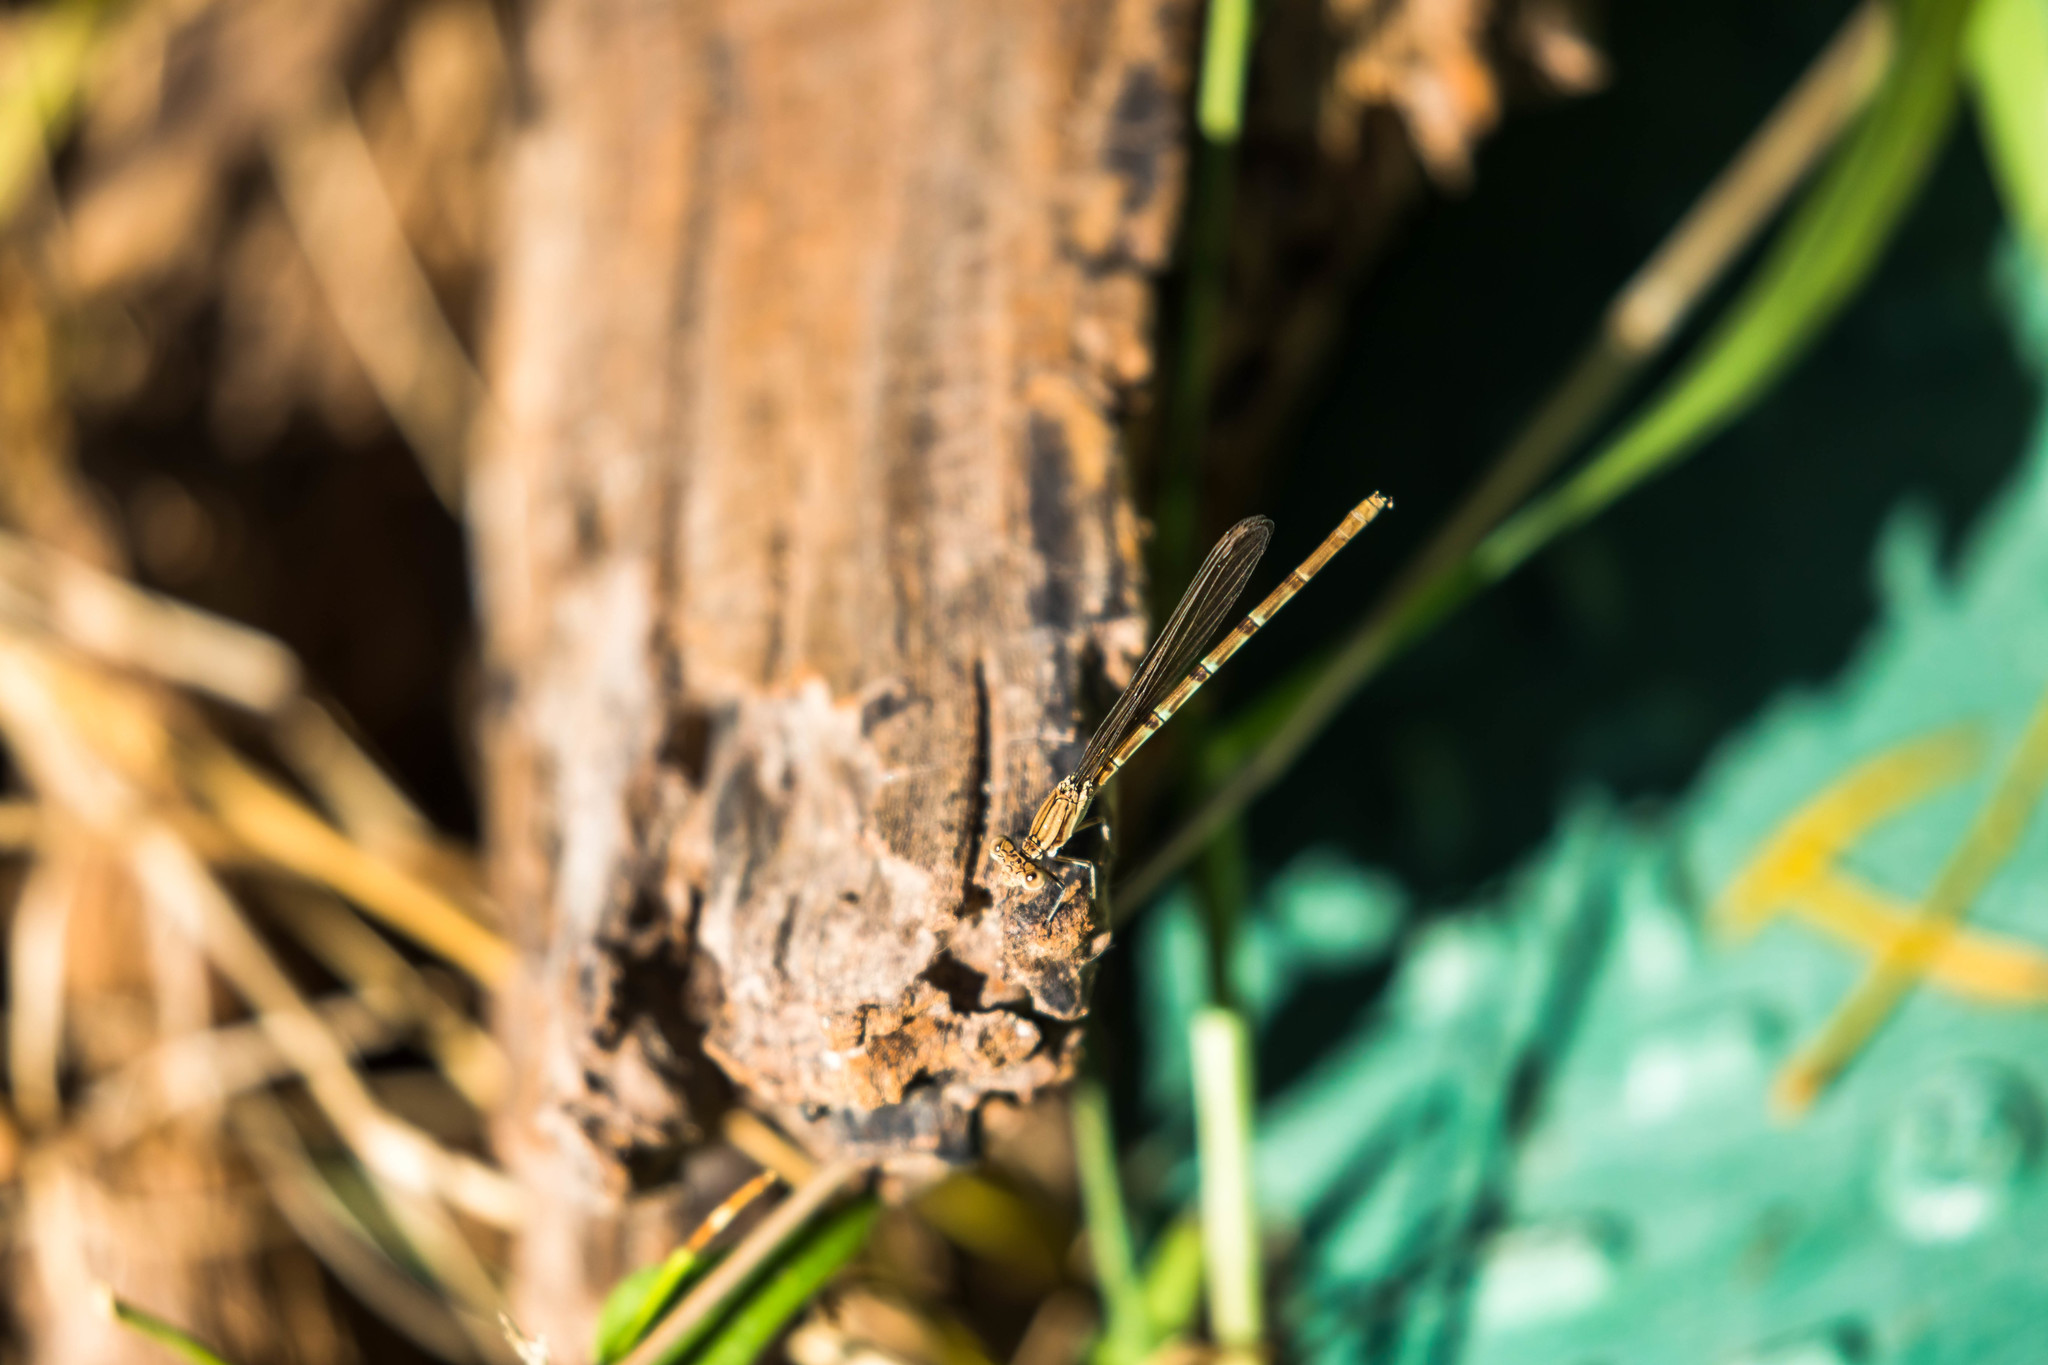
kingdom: Animalia
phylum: Arthropoda
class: Insecta
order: Odonata
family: Coenagrionidae
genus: Argia
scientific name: Argia sedula
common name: Blue-ringed dancer
